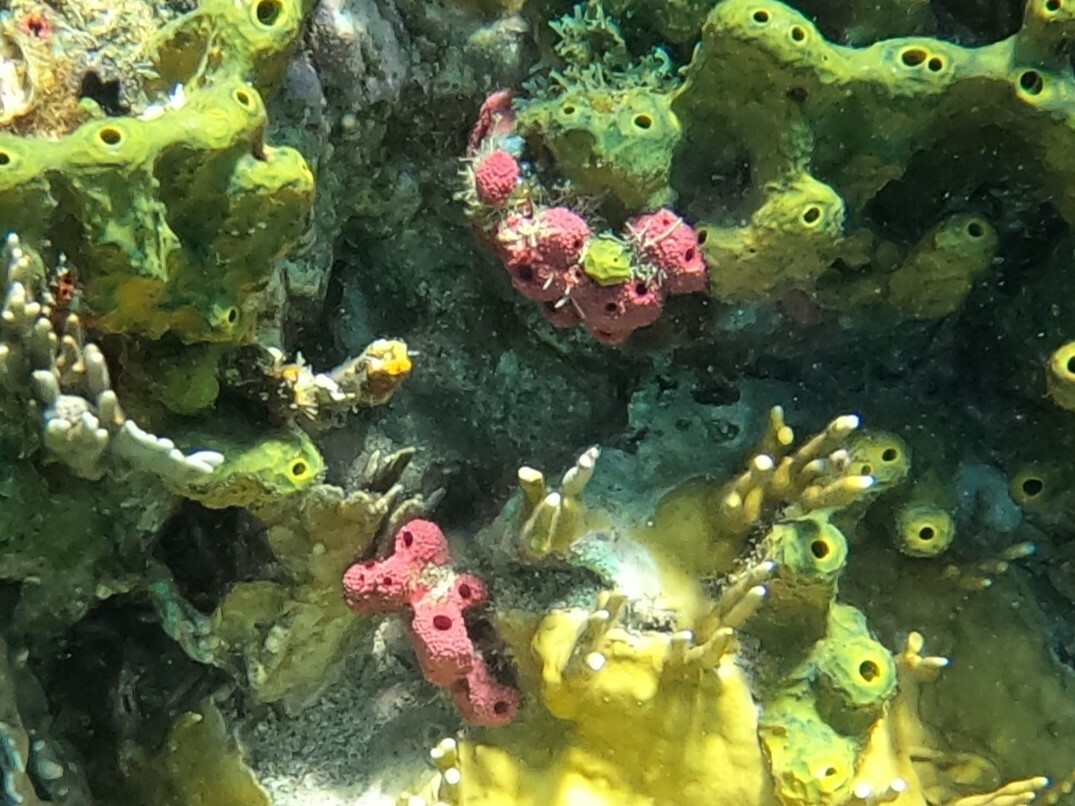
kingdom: Animalia
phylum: Porifera
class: Demospongiae
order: Dendroceratida
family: Dictyodendrillidae
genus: Igernella
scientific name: Igernella notabilis
